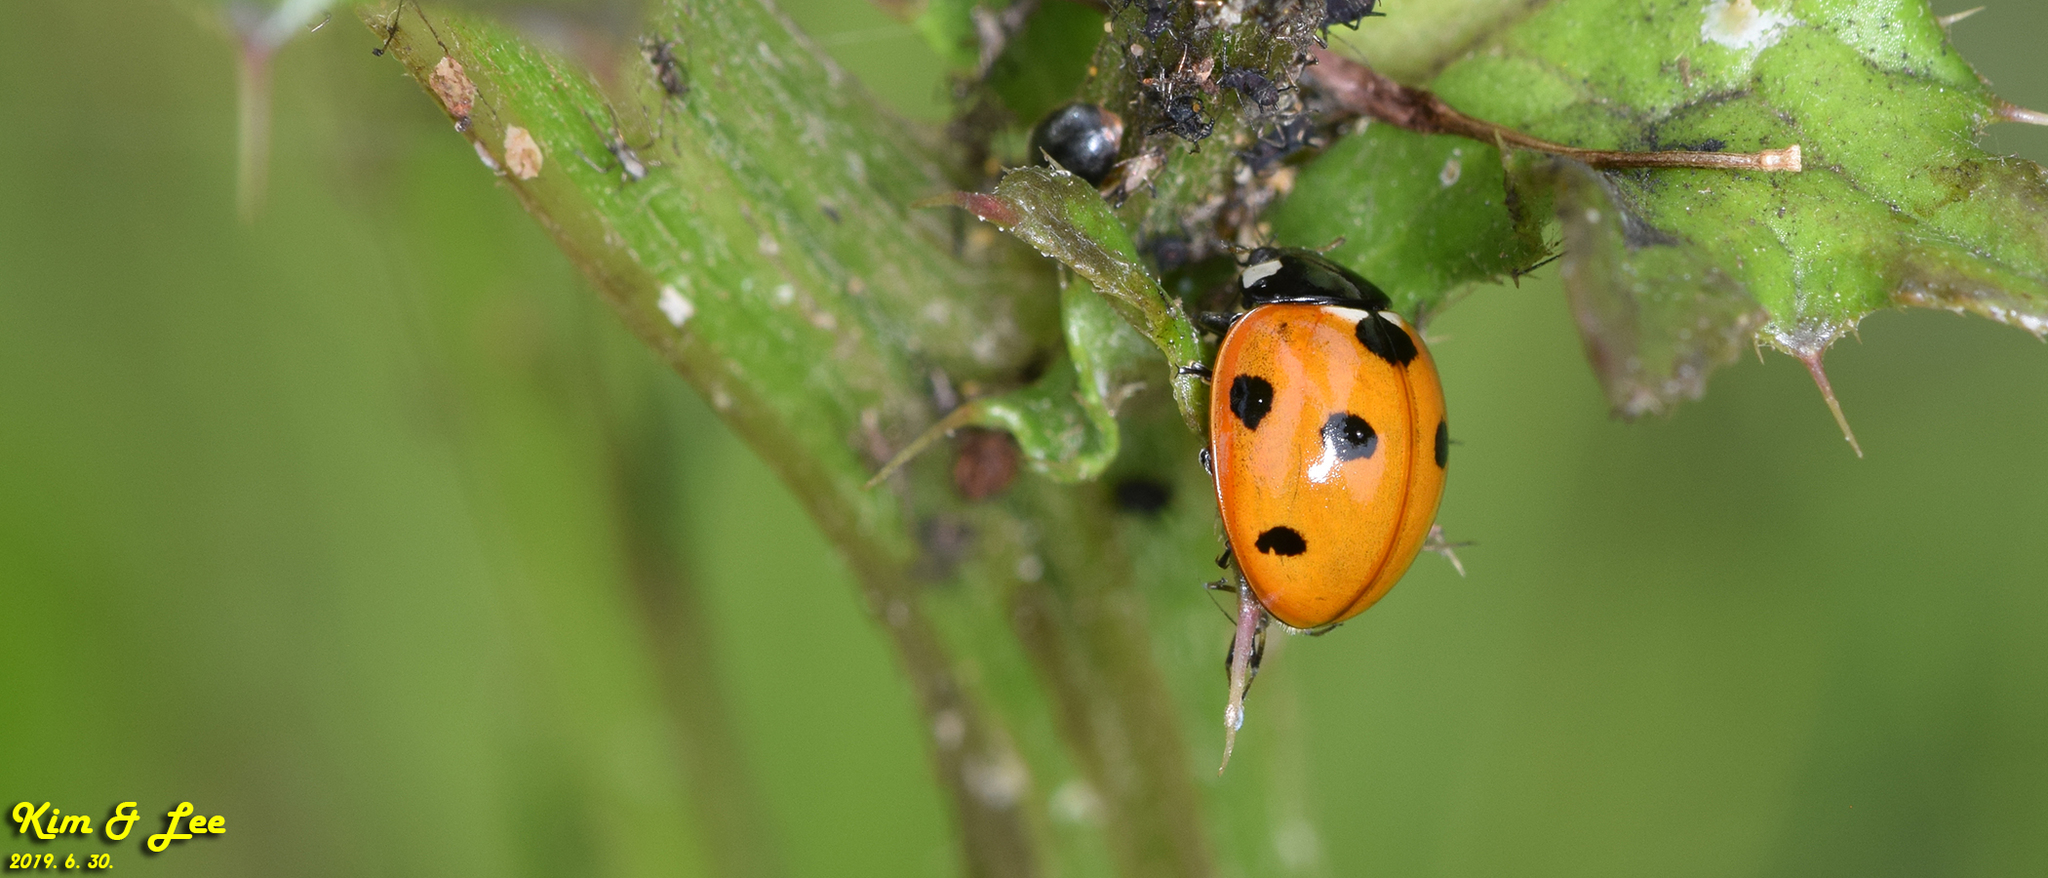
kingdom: Animalia
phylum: Arthropoda
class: Insecta
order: Coleoptera
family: Coccinellidae
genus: Coccinella
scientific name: Coccinella septempunctata
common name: Sevenspotted lady beetle
